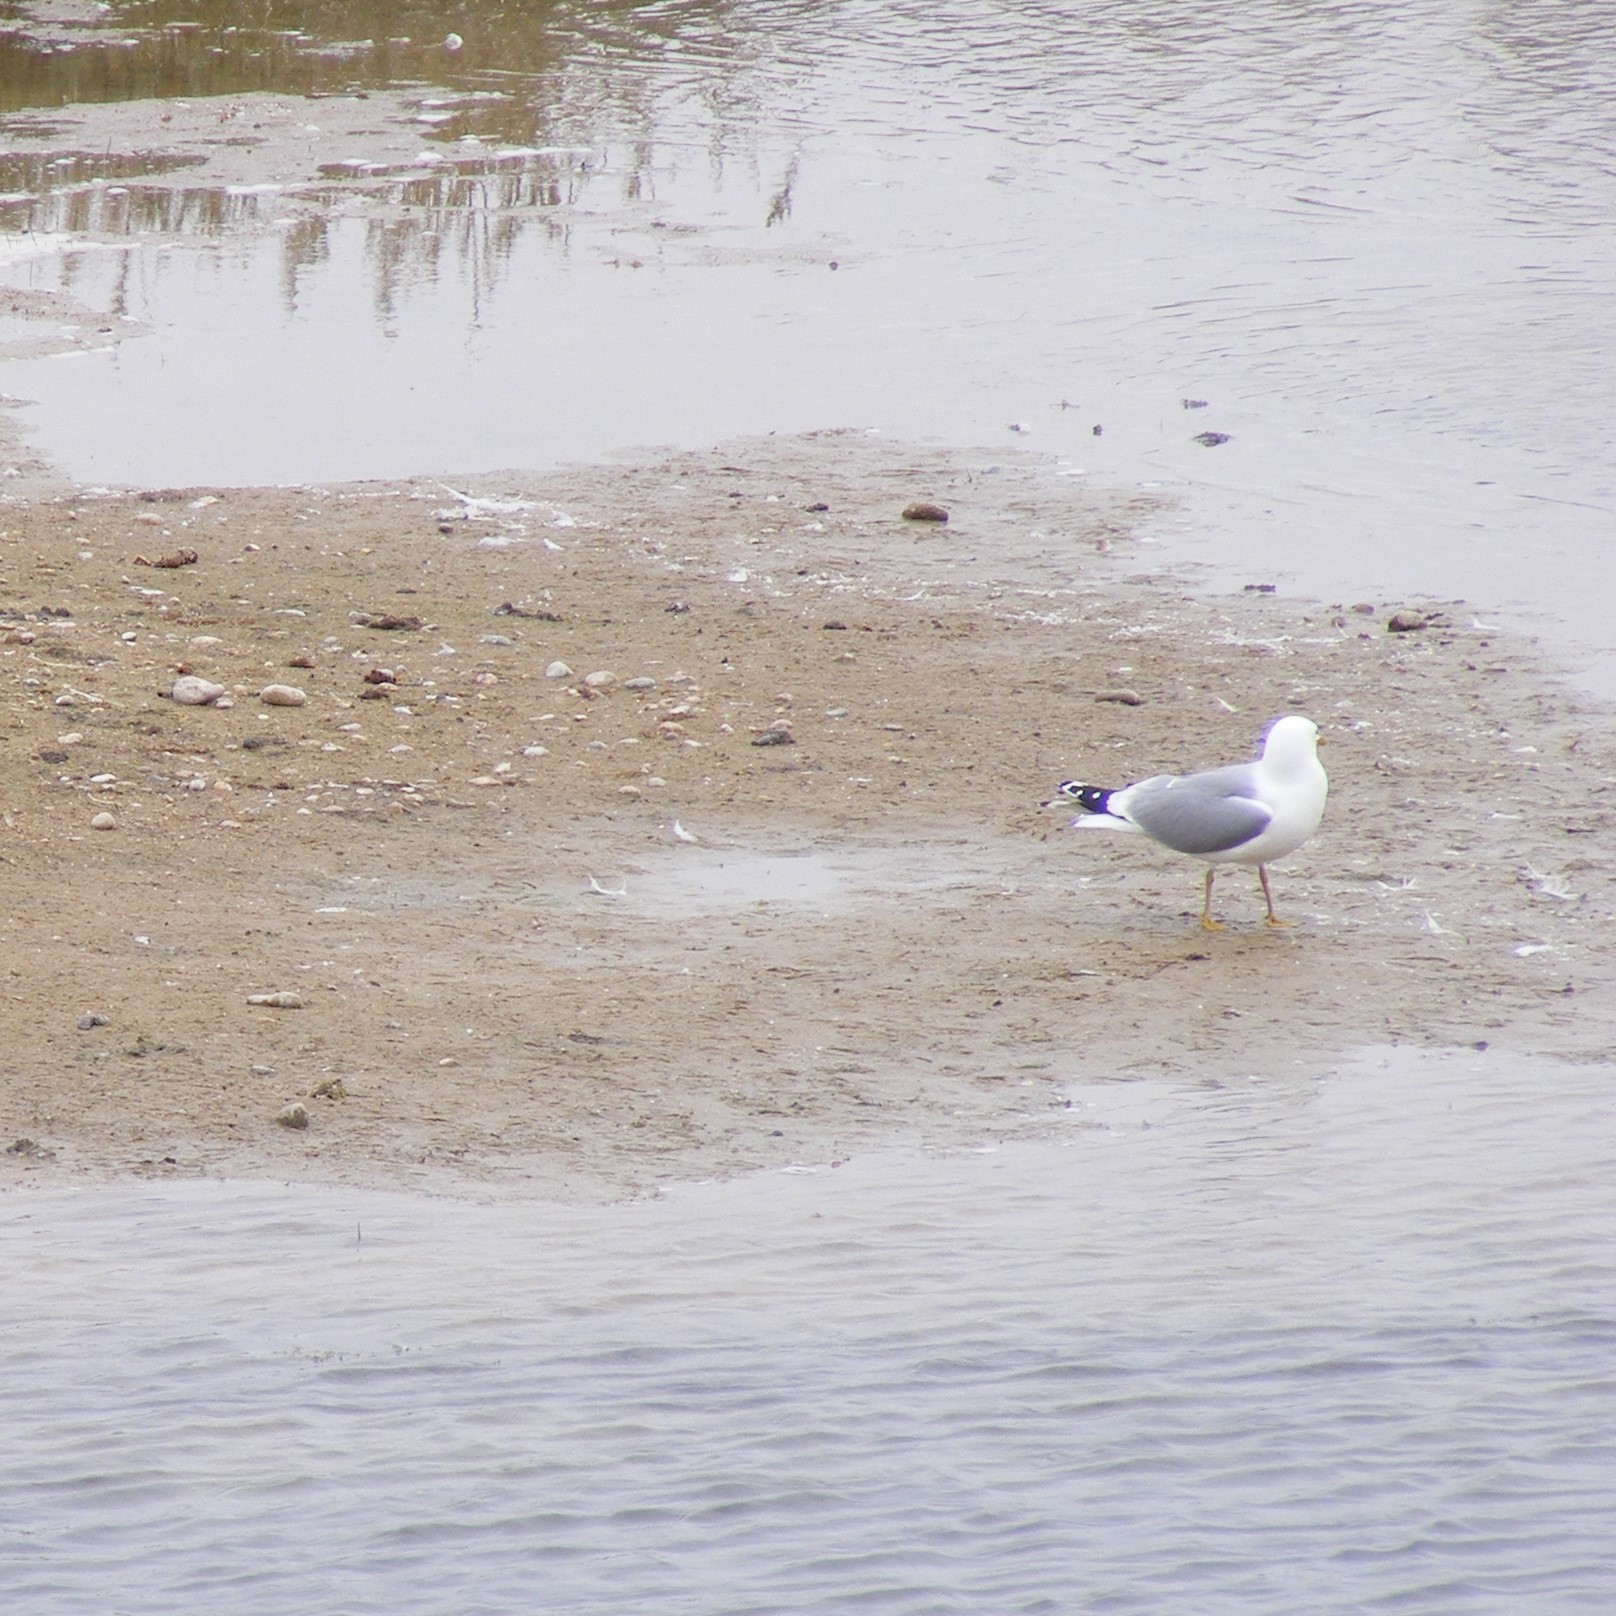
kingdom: Animalia
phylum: Chordata
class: Aves
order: Charadriiformes
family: Laridae
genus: Larus
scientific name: Larus canus
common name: Mew gull
